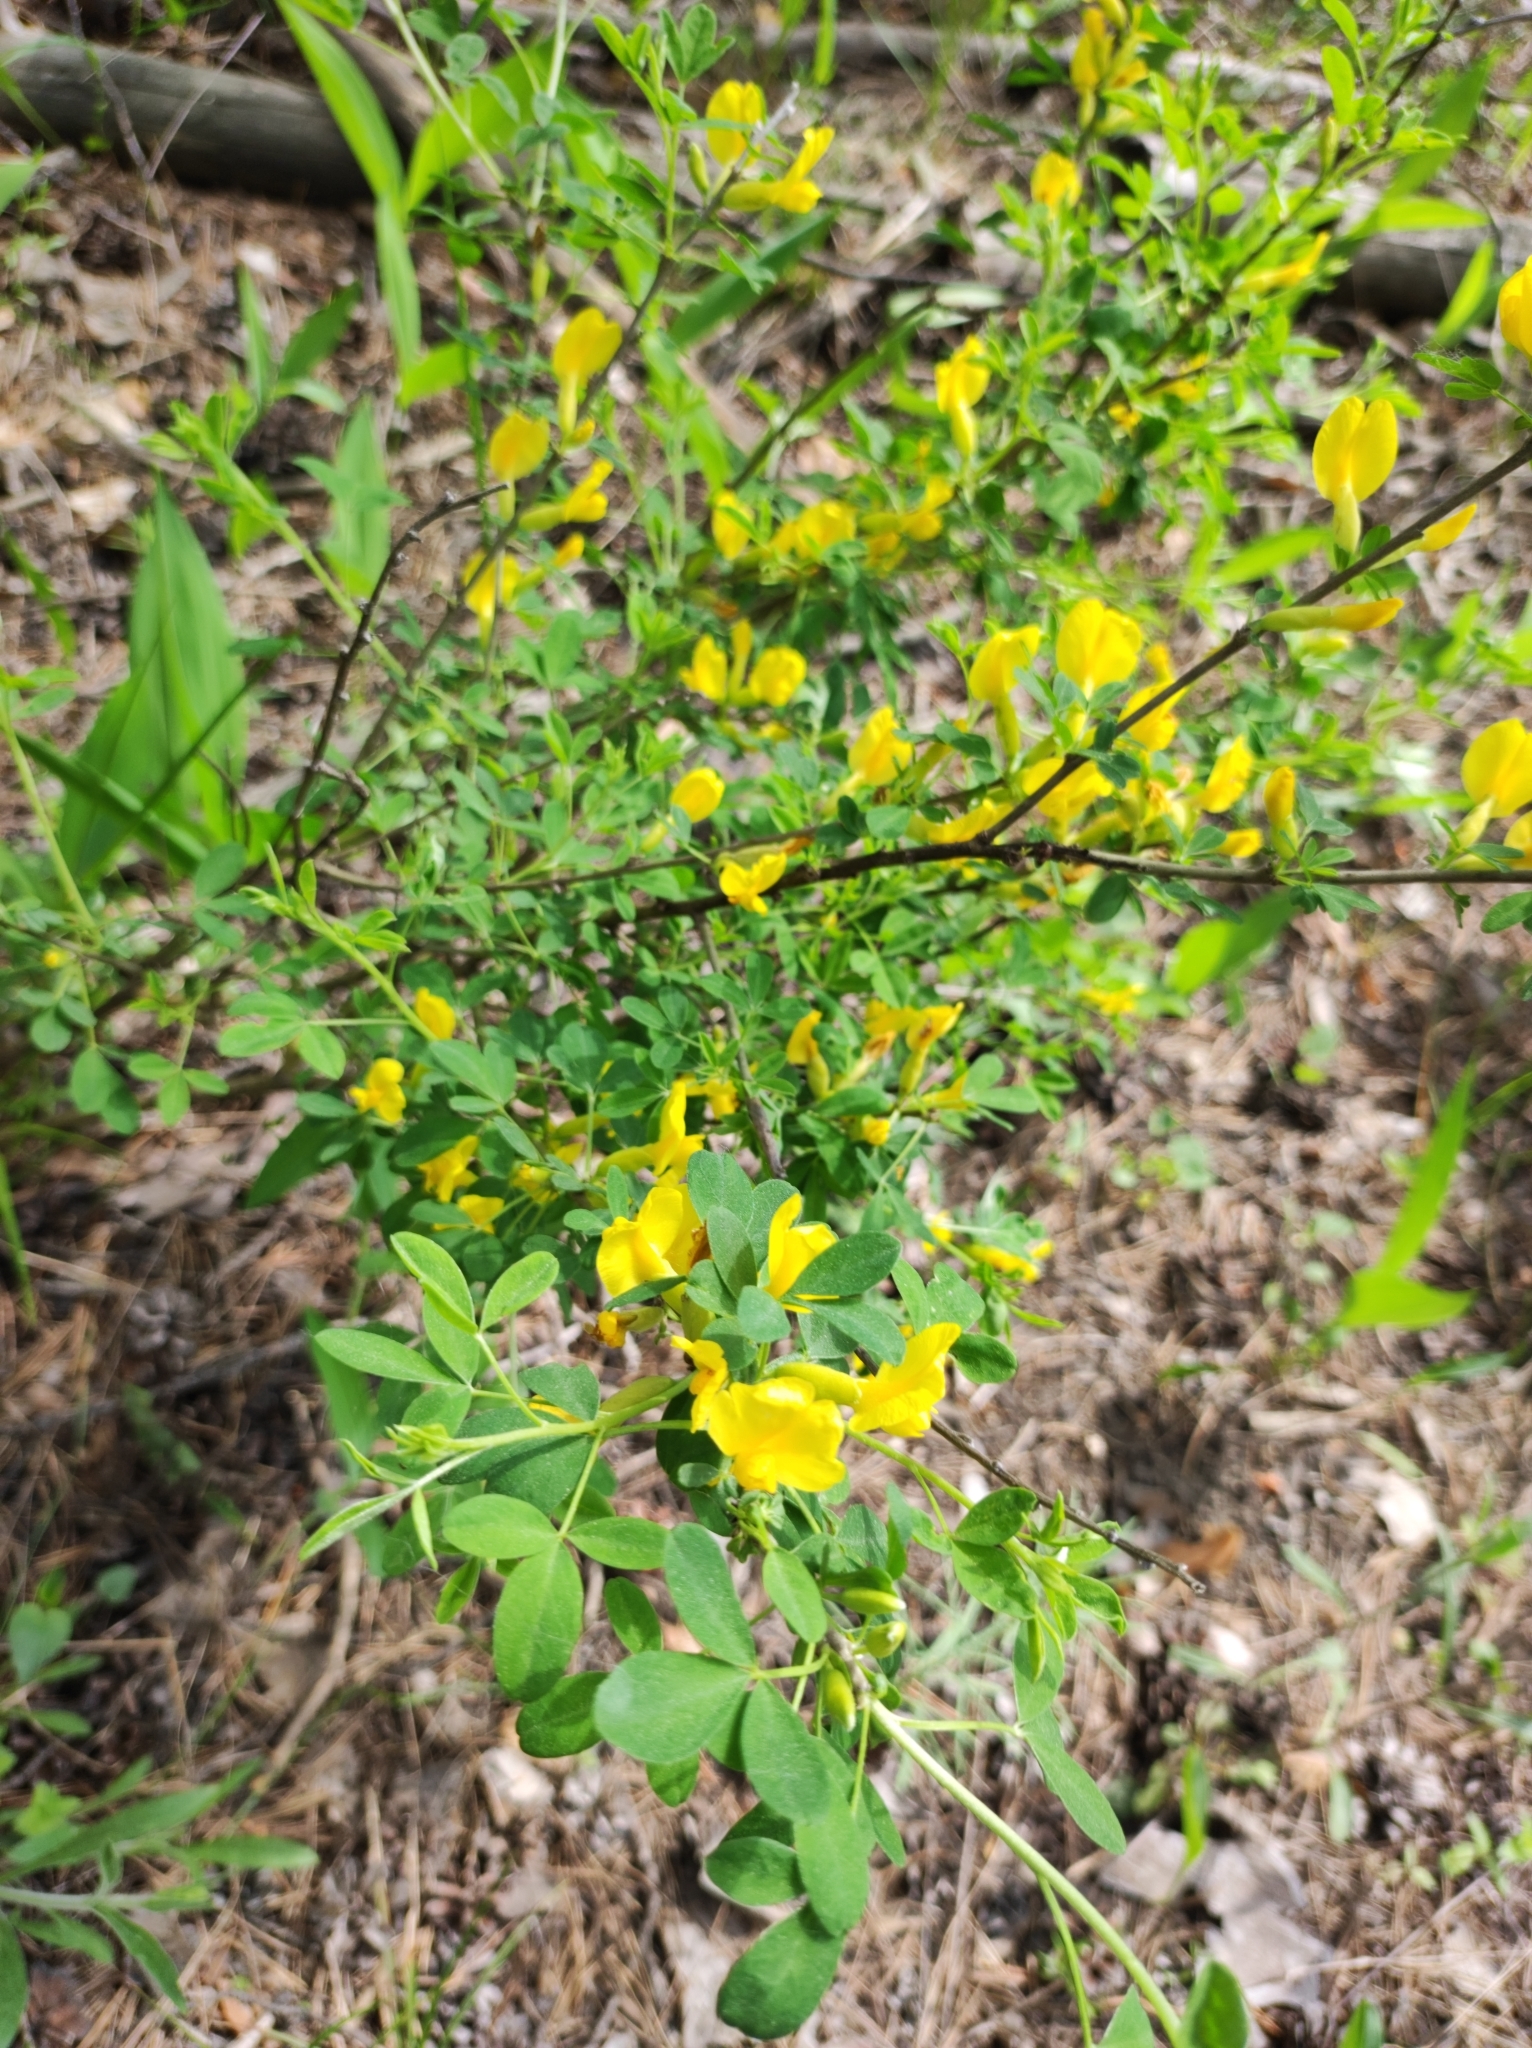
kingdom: Plantae
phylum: Tracheophyta
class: Magnoliopsida
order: Fabales
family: Fabaceae
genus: Chamaecytisus
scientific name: Chamaecytisus ruthenicus
